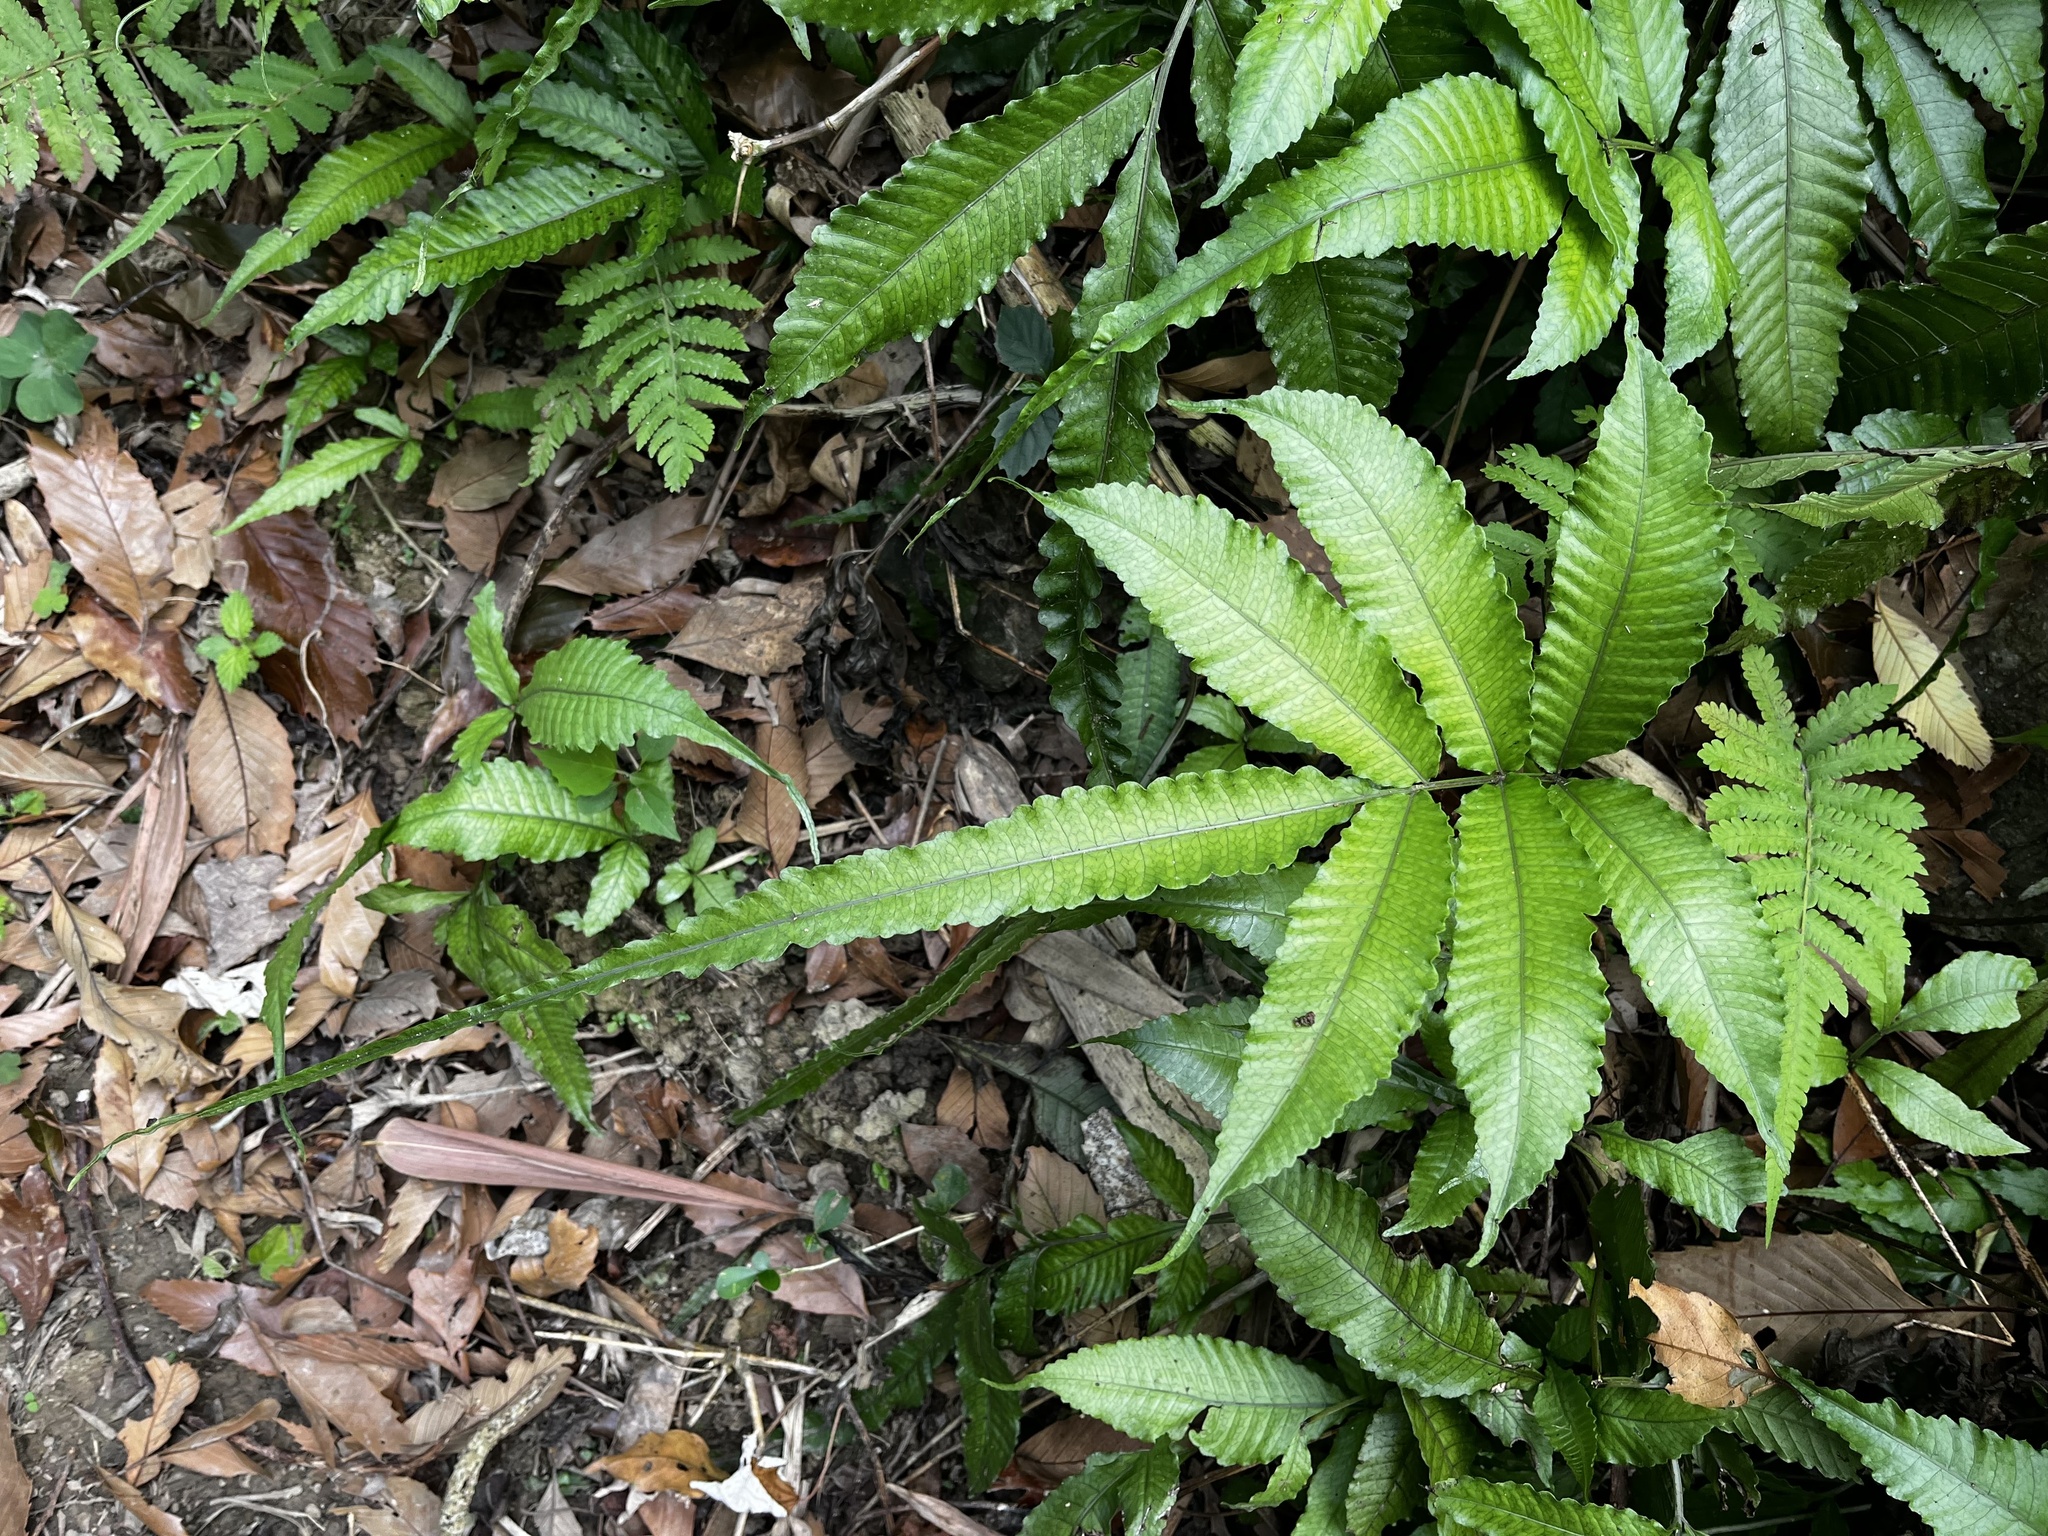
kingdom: Plantae
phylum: Tracheophyta
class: Polypodiopsida
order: Polypodiales
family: Dryopteridaceae
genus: Bolbitis
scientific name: Bolbitis heteroclita
